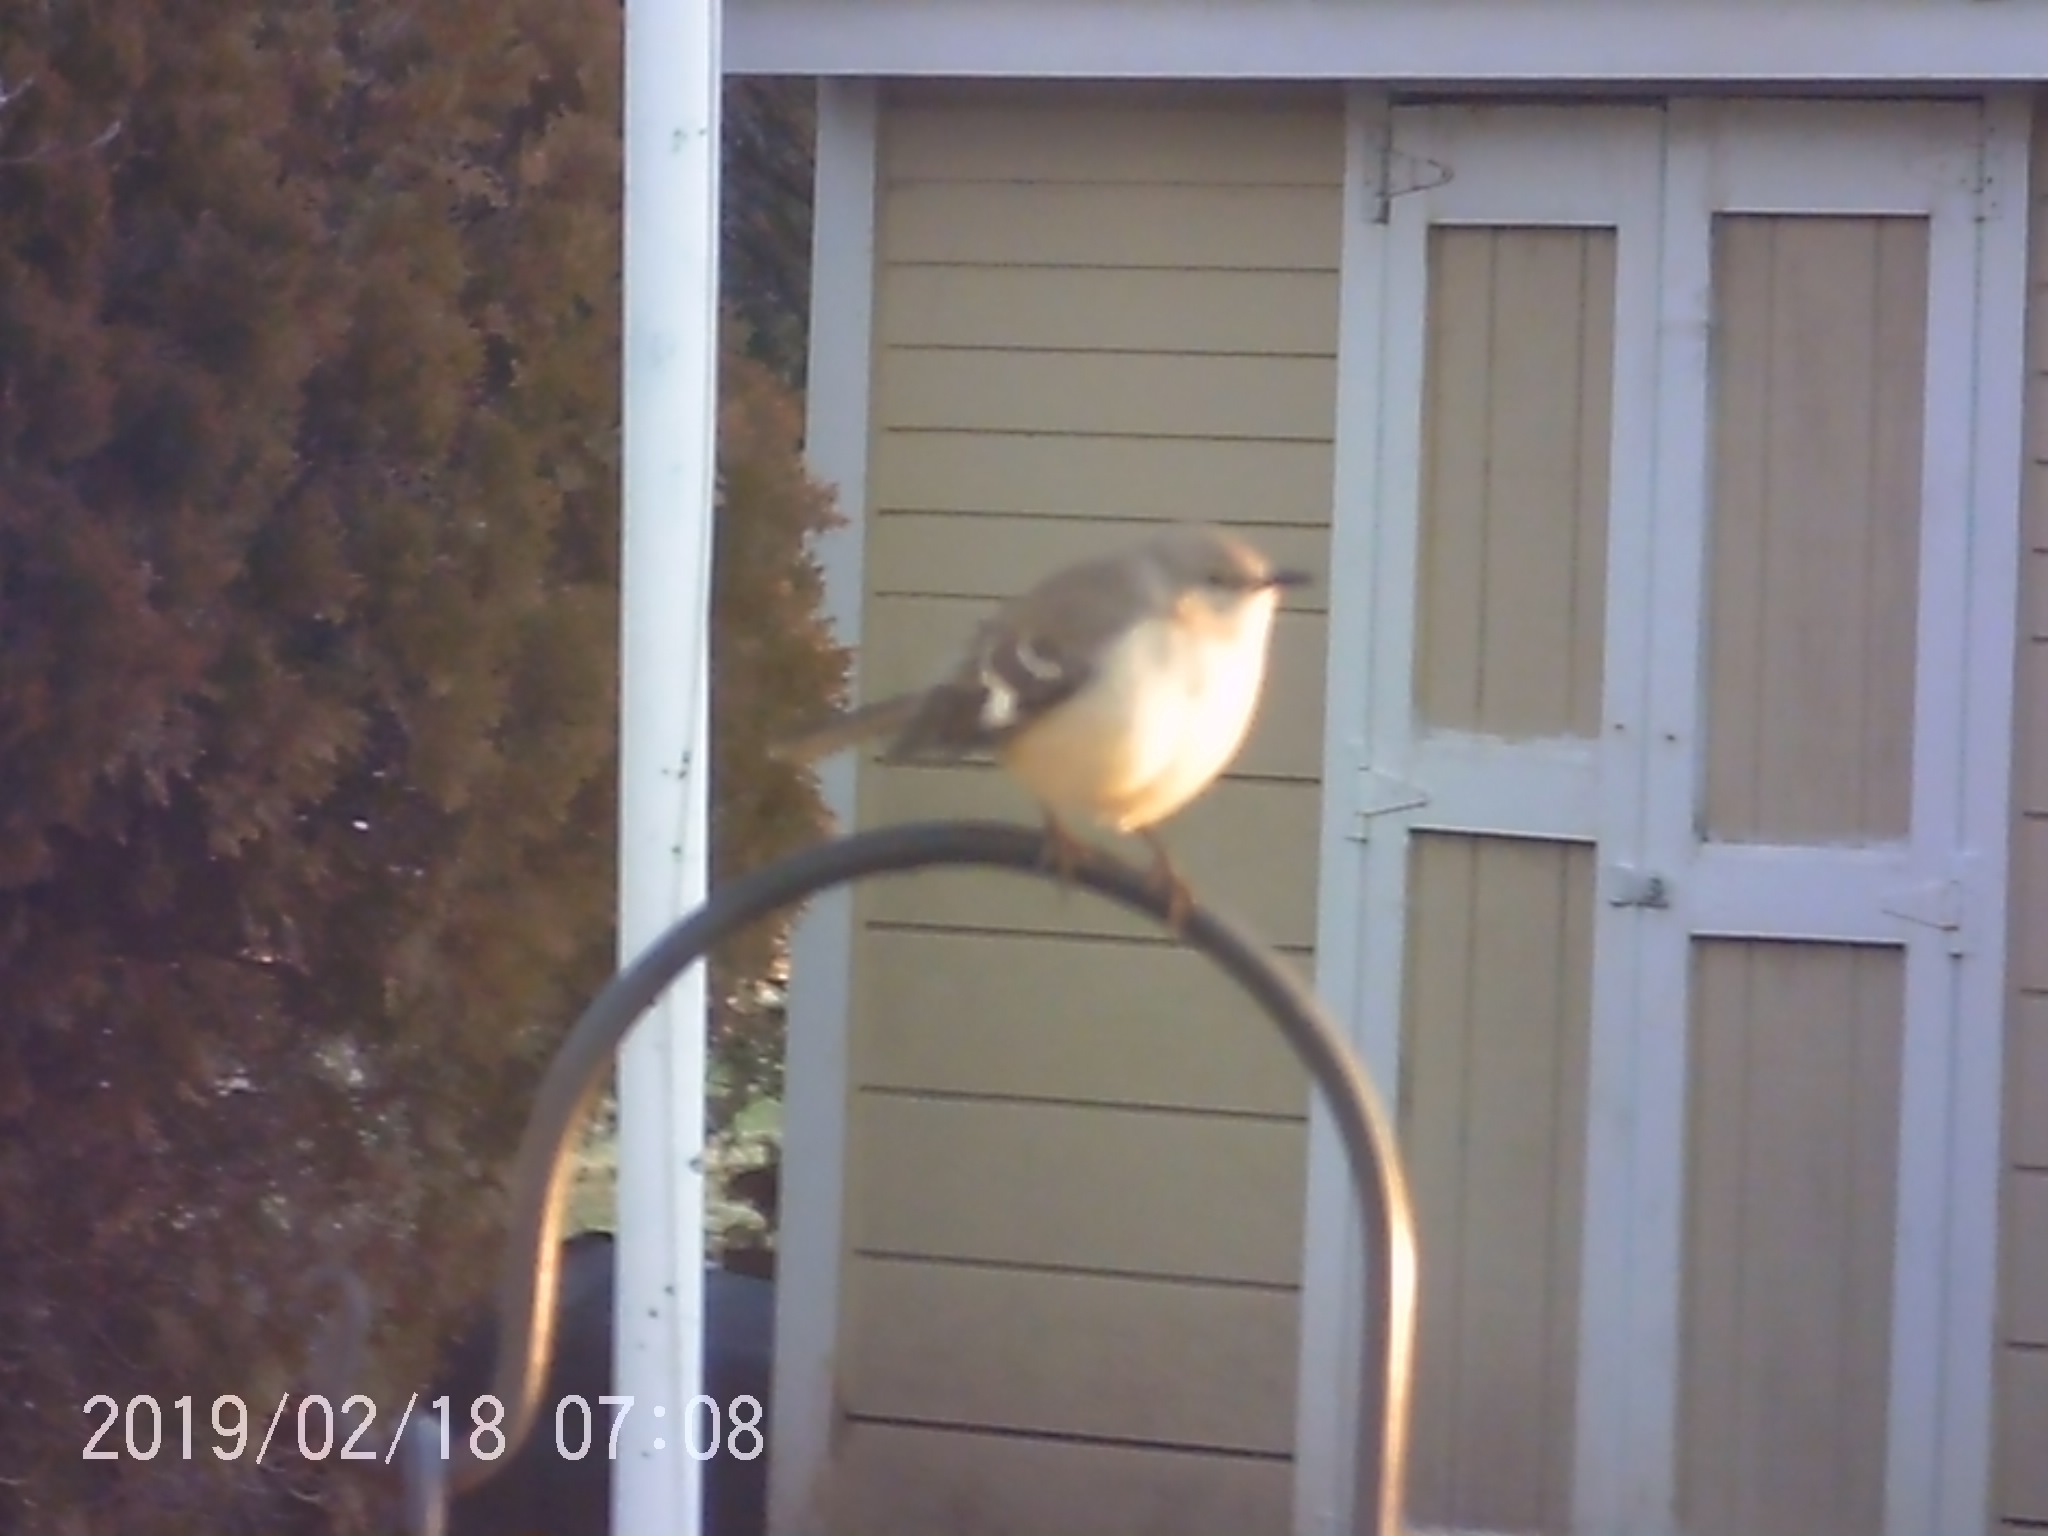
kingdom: Animalia
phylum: Chordata
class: Aves
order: Passeriformes
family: Mimidae
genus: Mimus
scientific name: Mimus polyglottos
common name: Northern mockingbird
